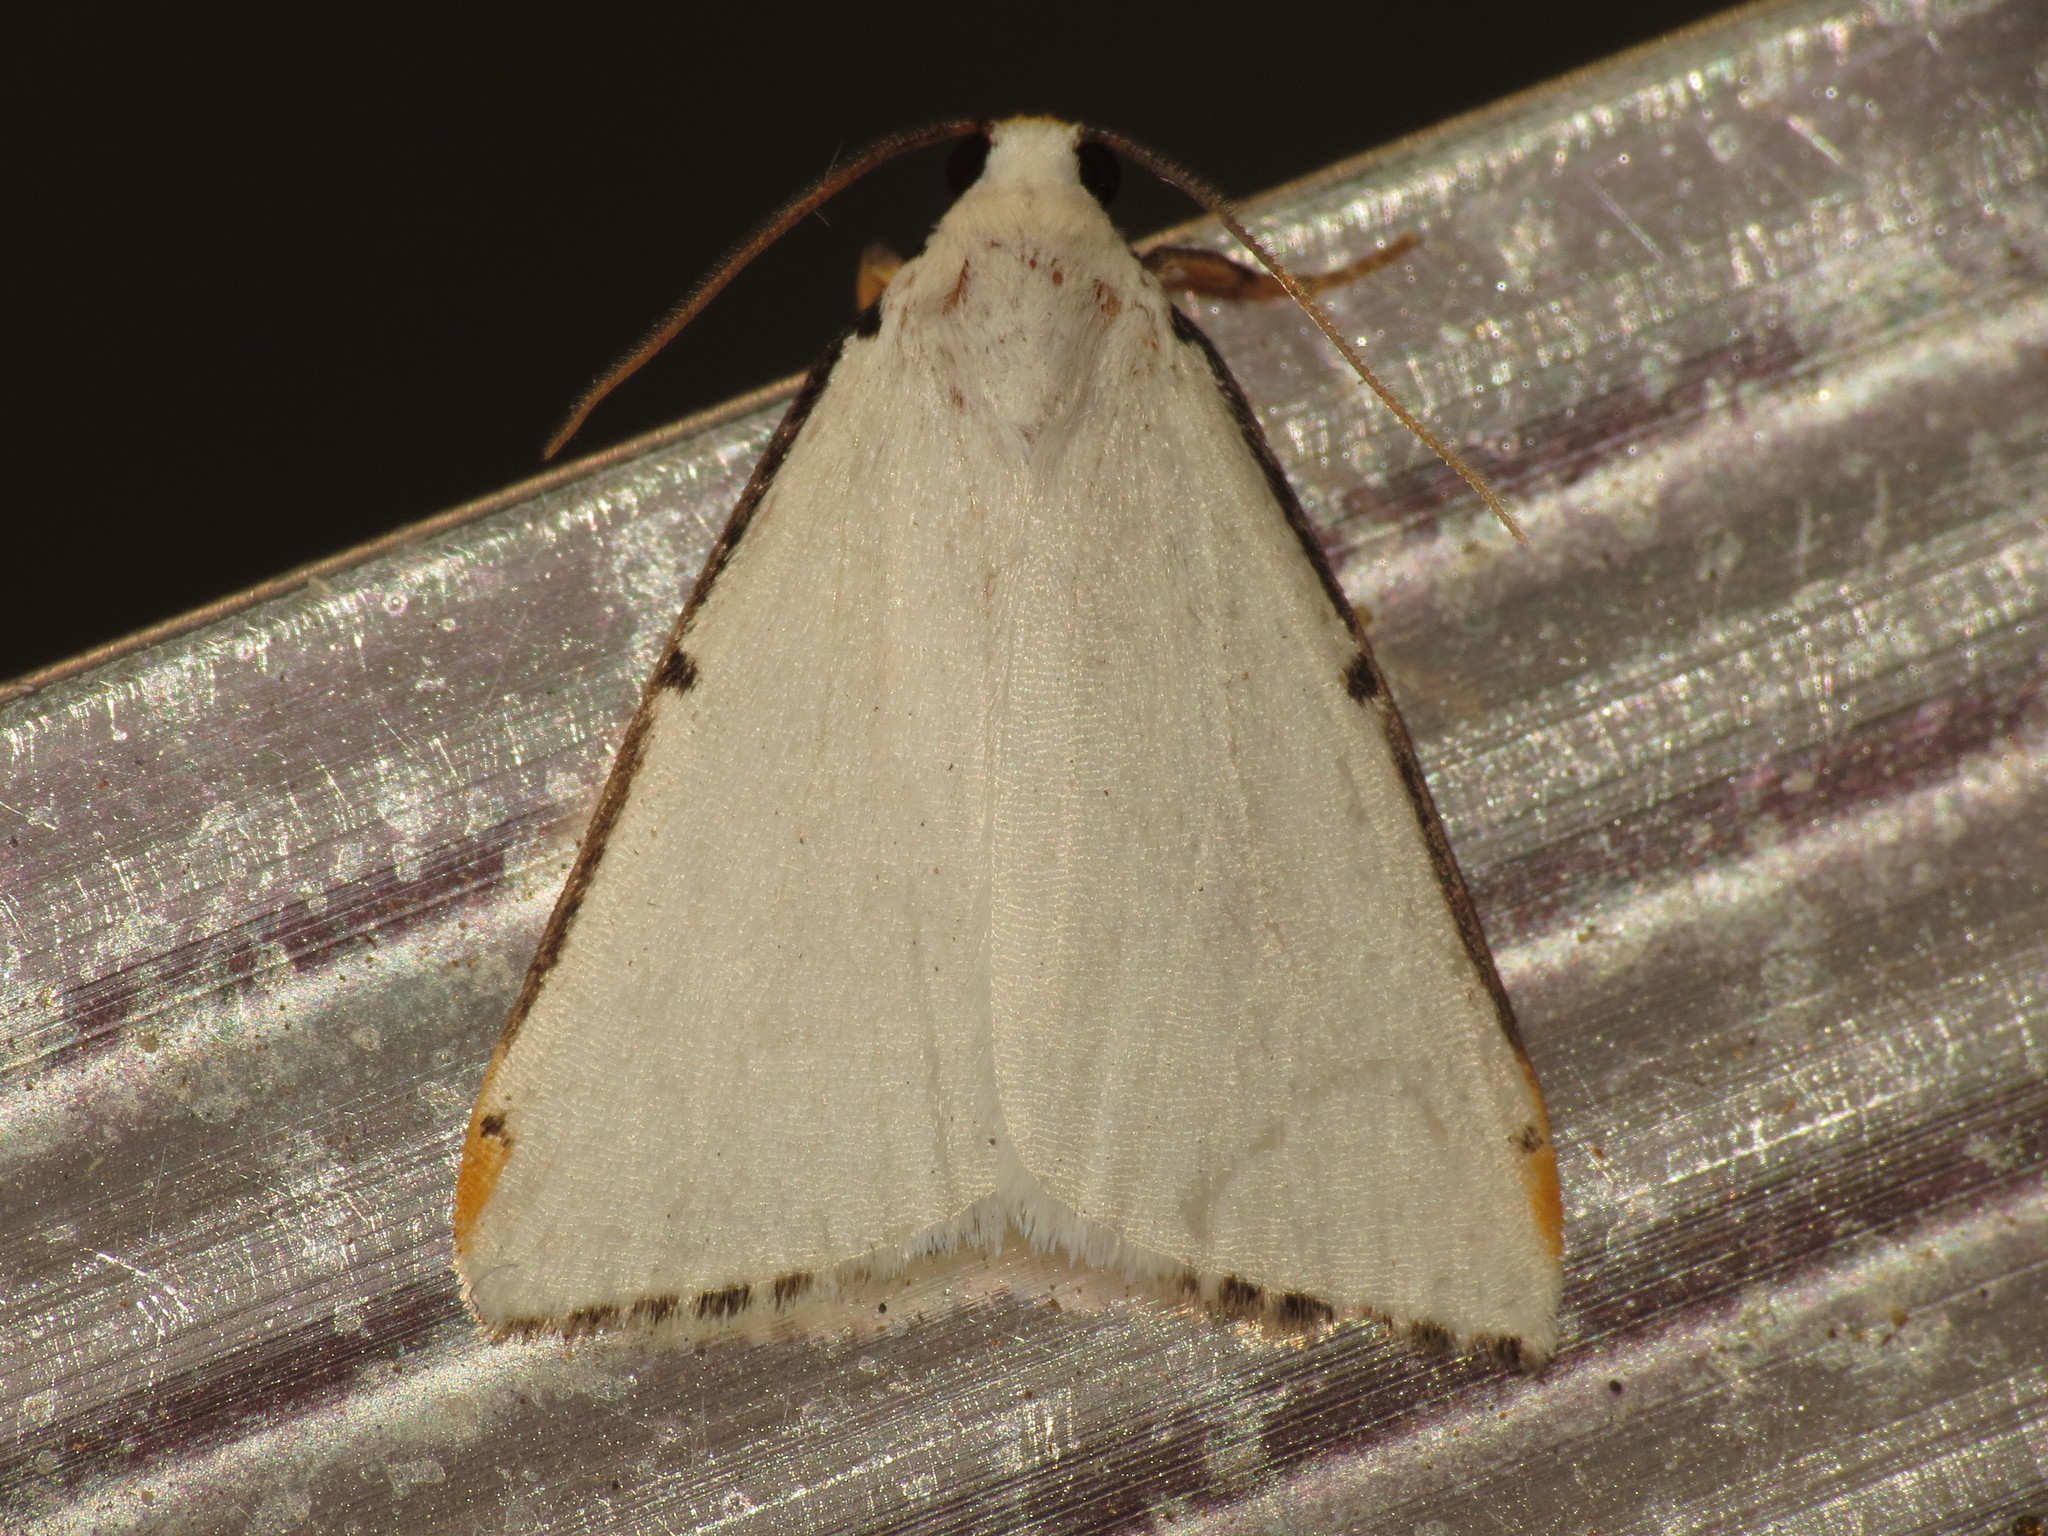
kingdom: Animalia
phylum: Arthropoda
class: Insecta
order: Lepidoptera
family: Erebidae
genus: Termessa
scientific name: Termessa nivosa
